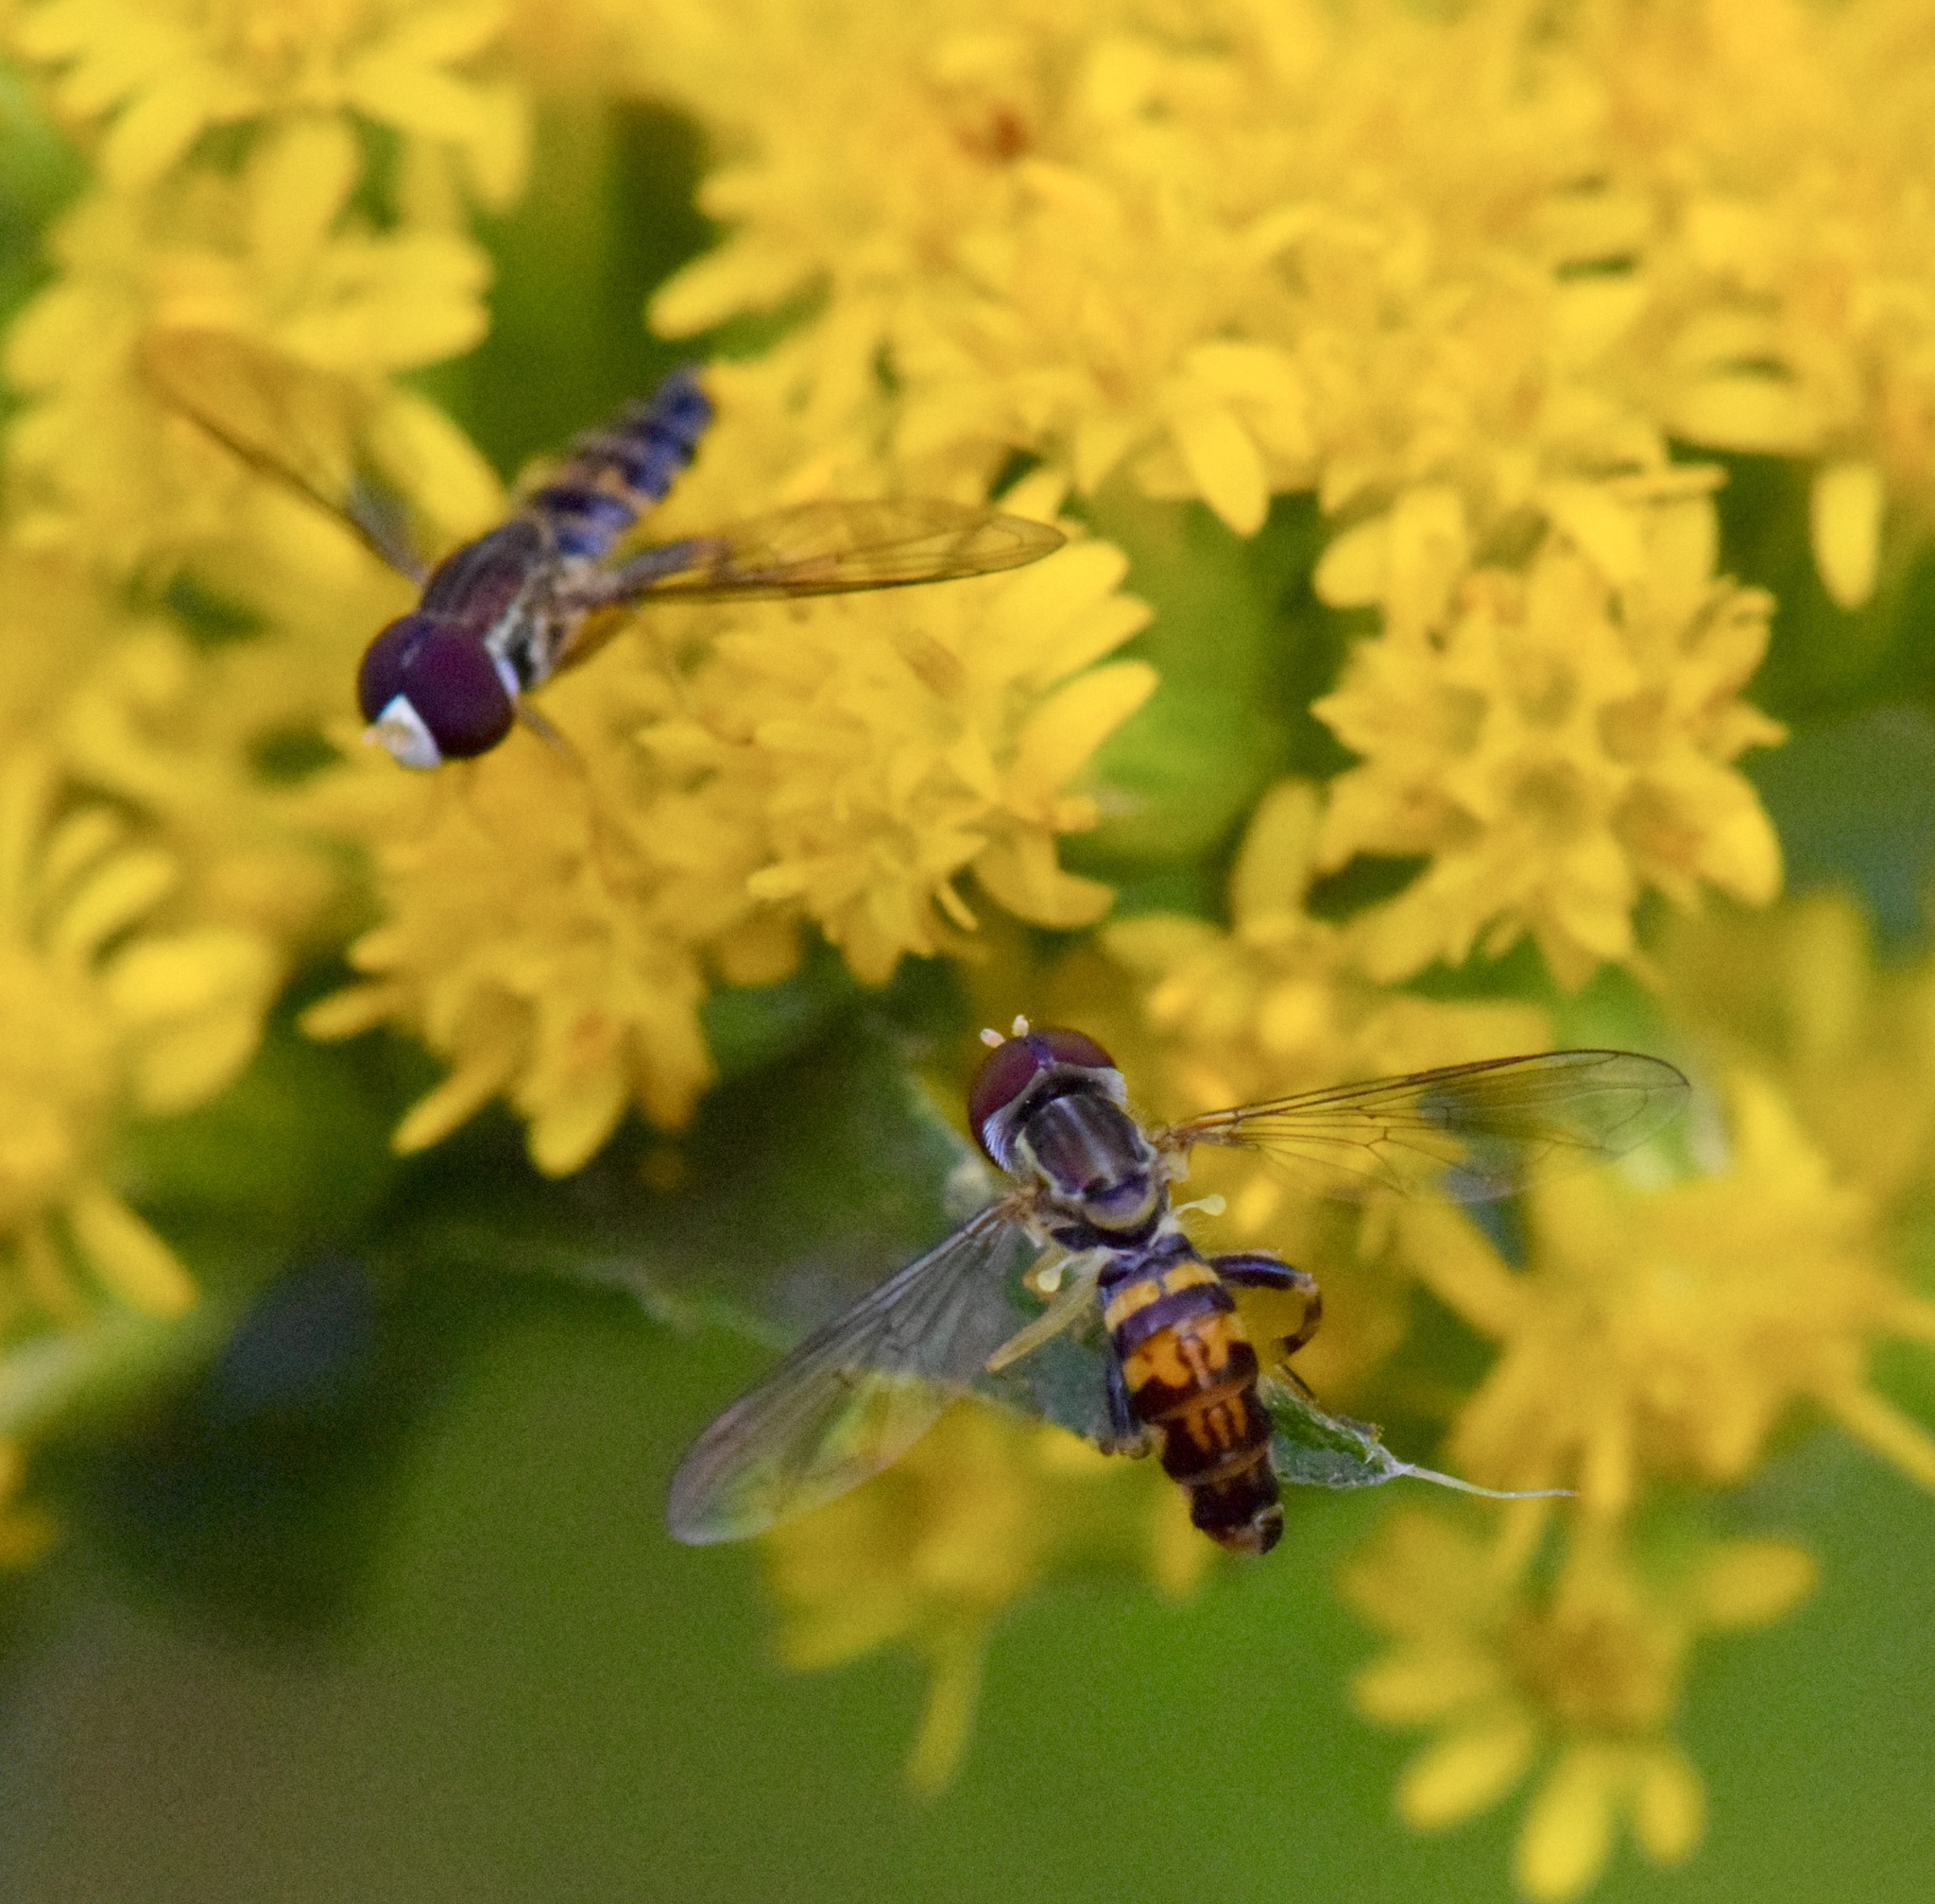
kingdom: Animalia
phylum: Arthropoda
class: Insecta
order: Diptera
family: Syrphidae
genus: Toxomerus
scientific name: Toxomerus geminatus
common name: Eastern calligrapher
